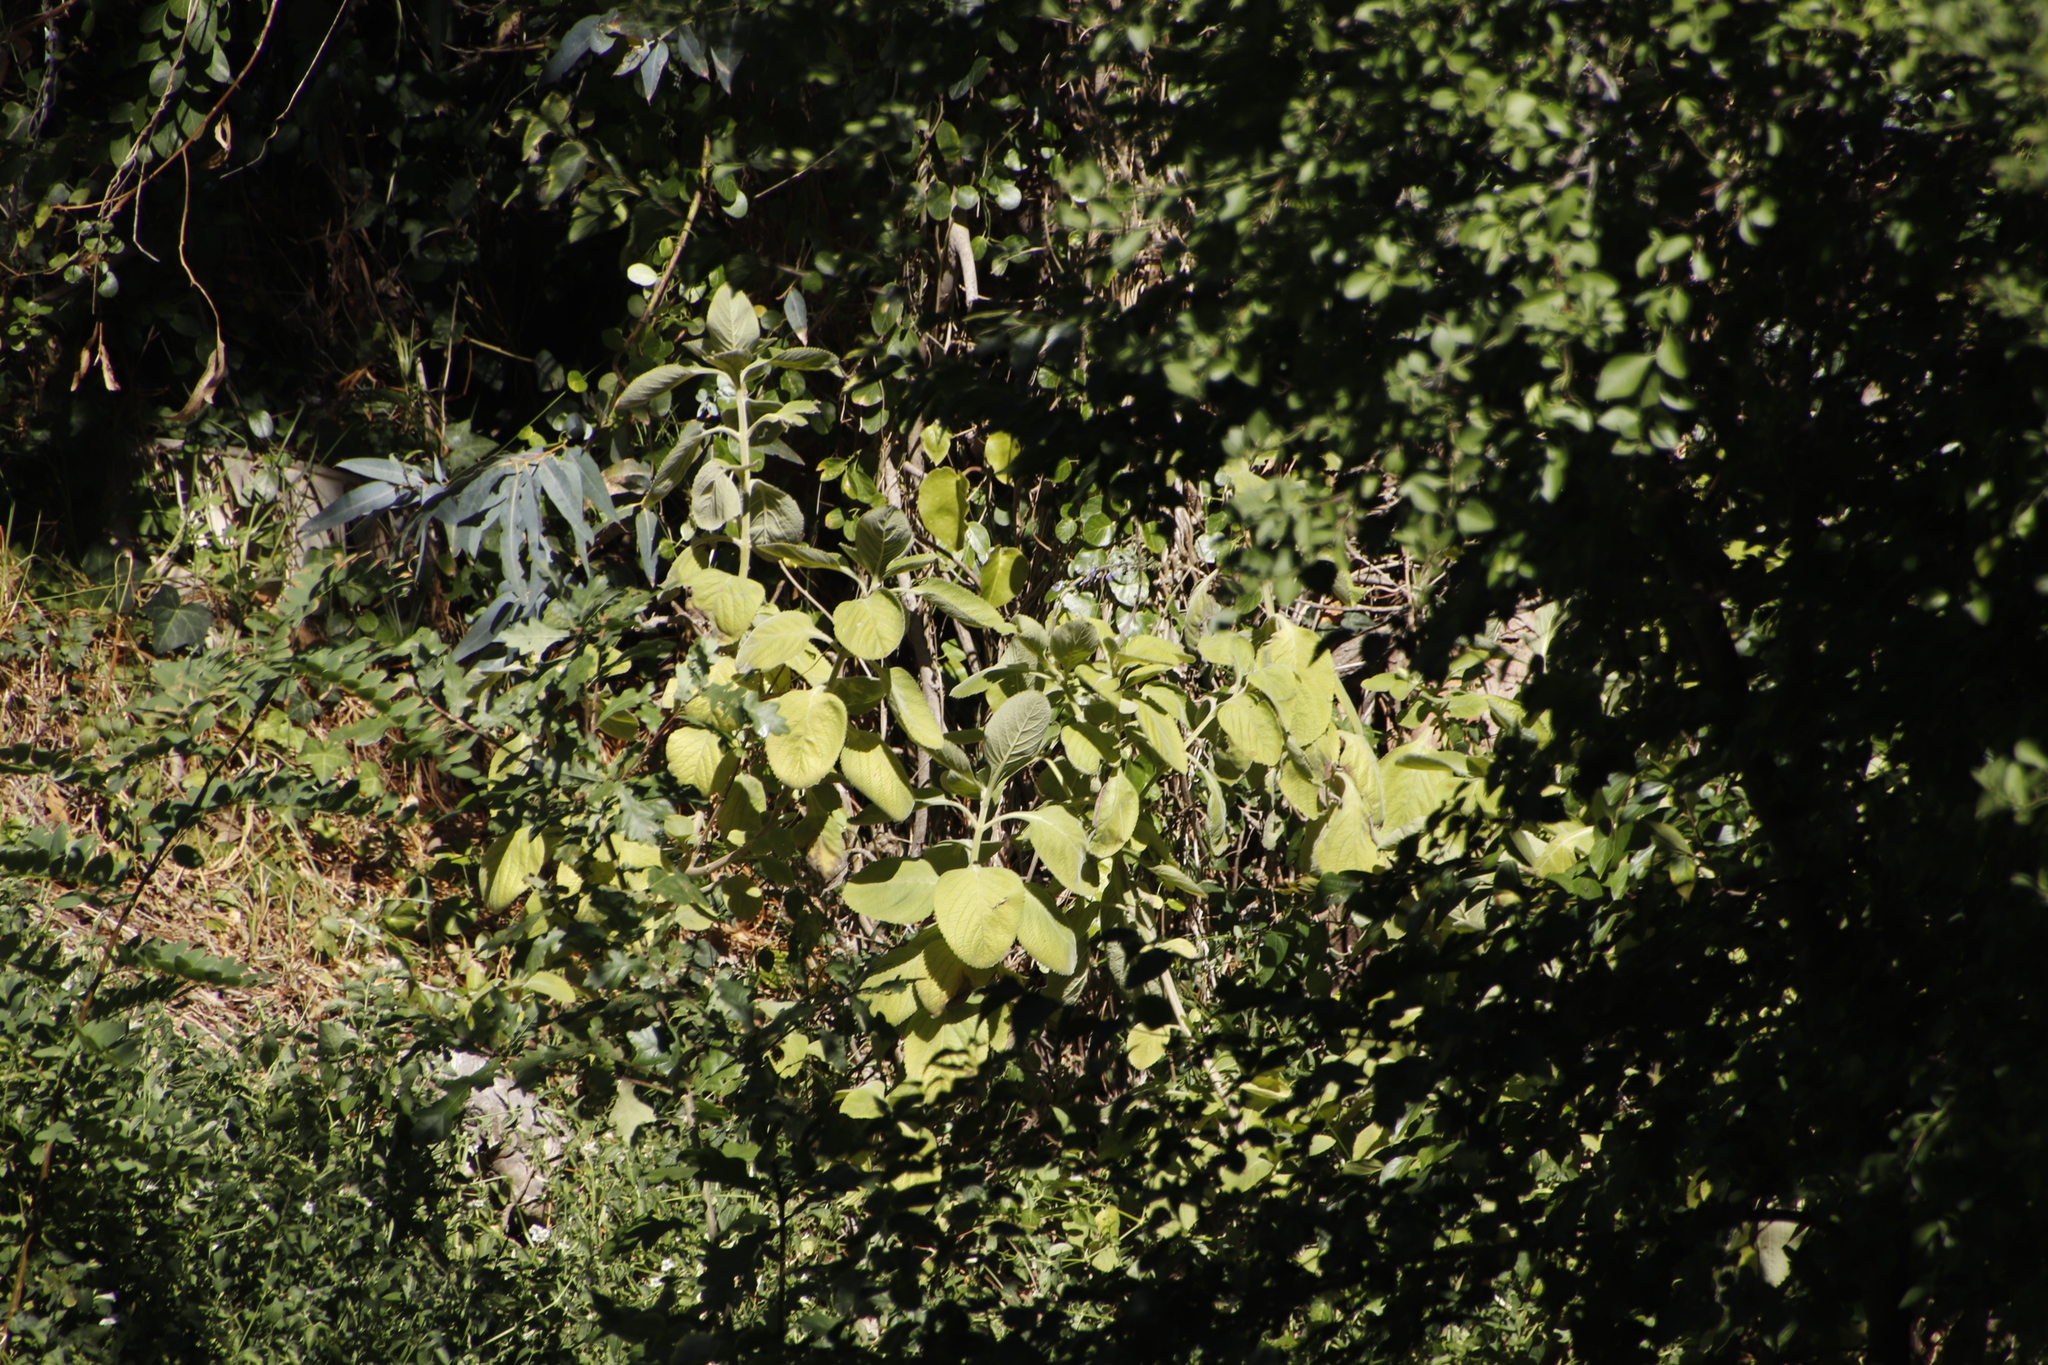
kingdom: Plantae
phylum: Tracheophyta
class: Magnoliopsida
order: Lamiales
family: Lamiaceae
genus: Coleus
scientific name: Coleus barbatus
